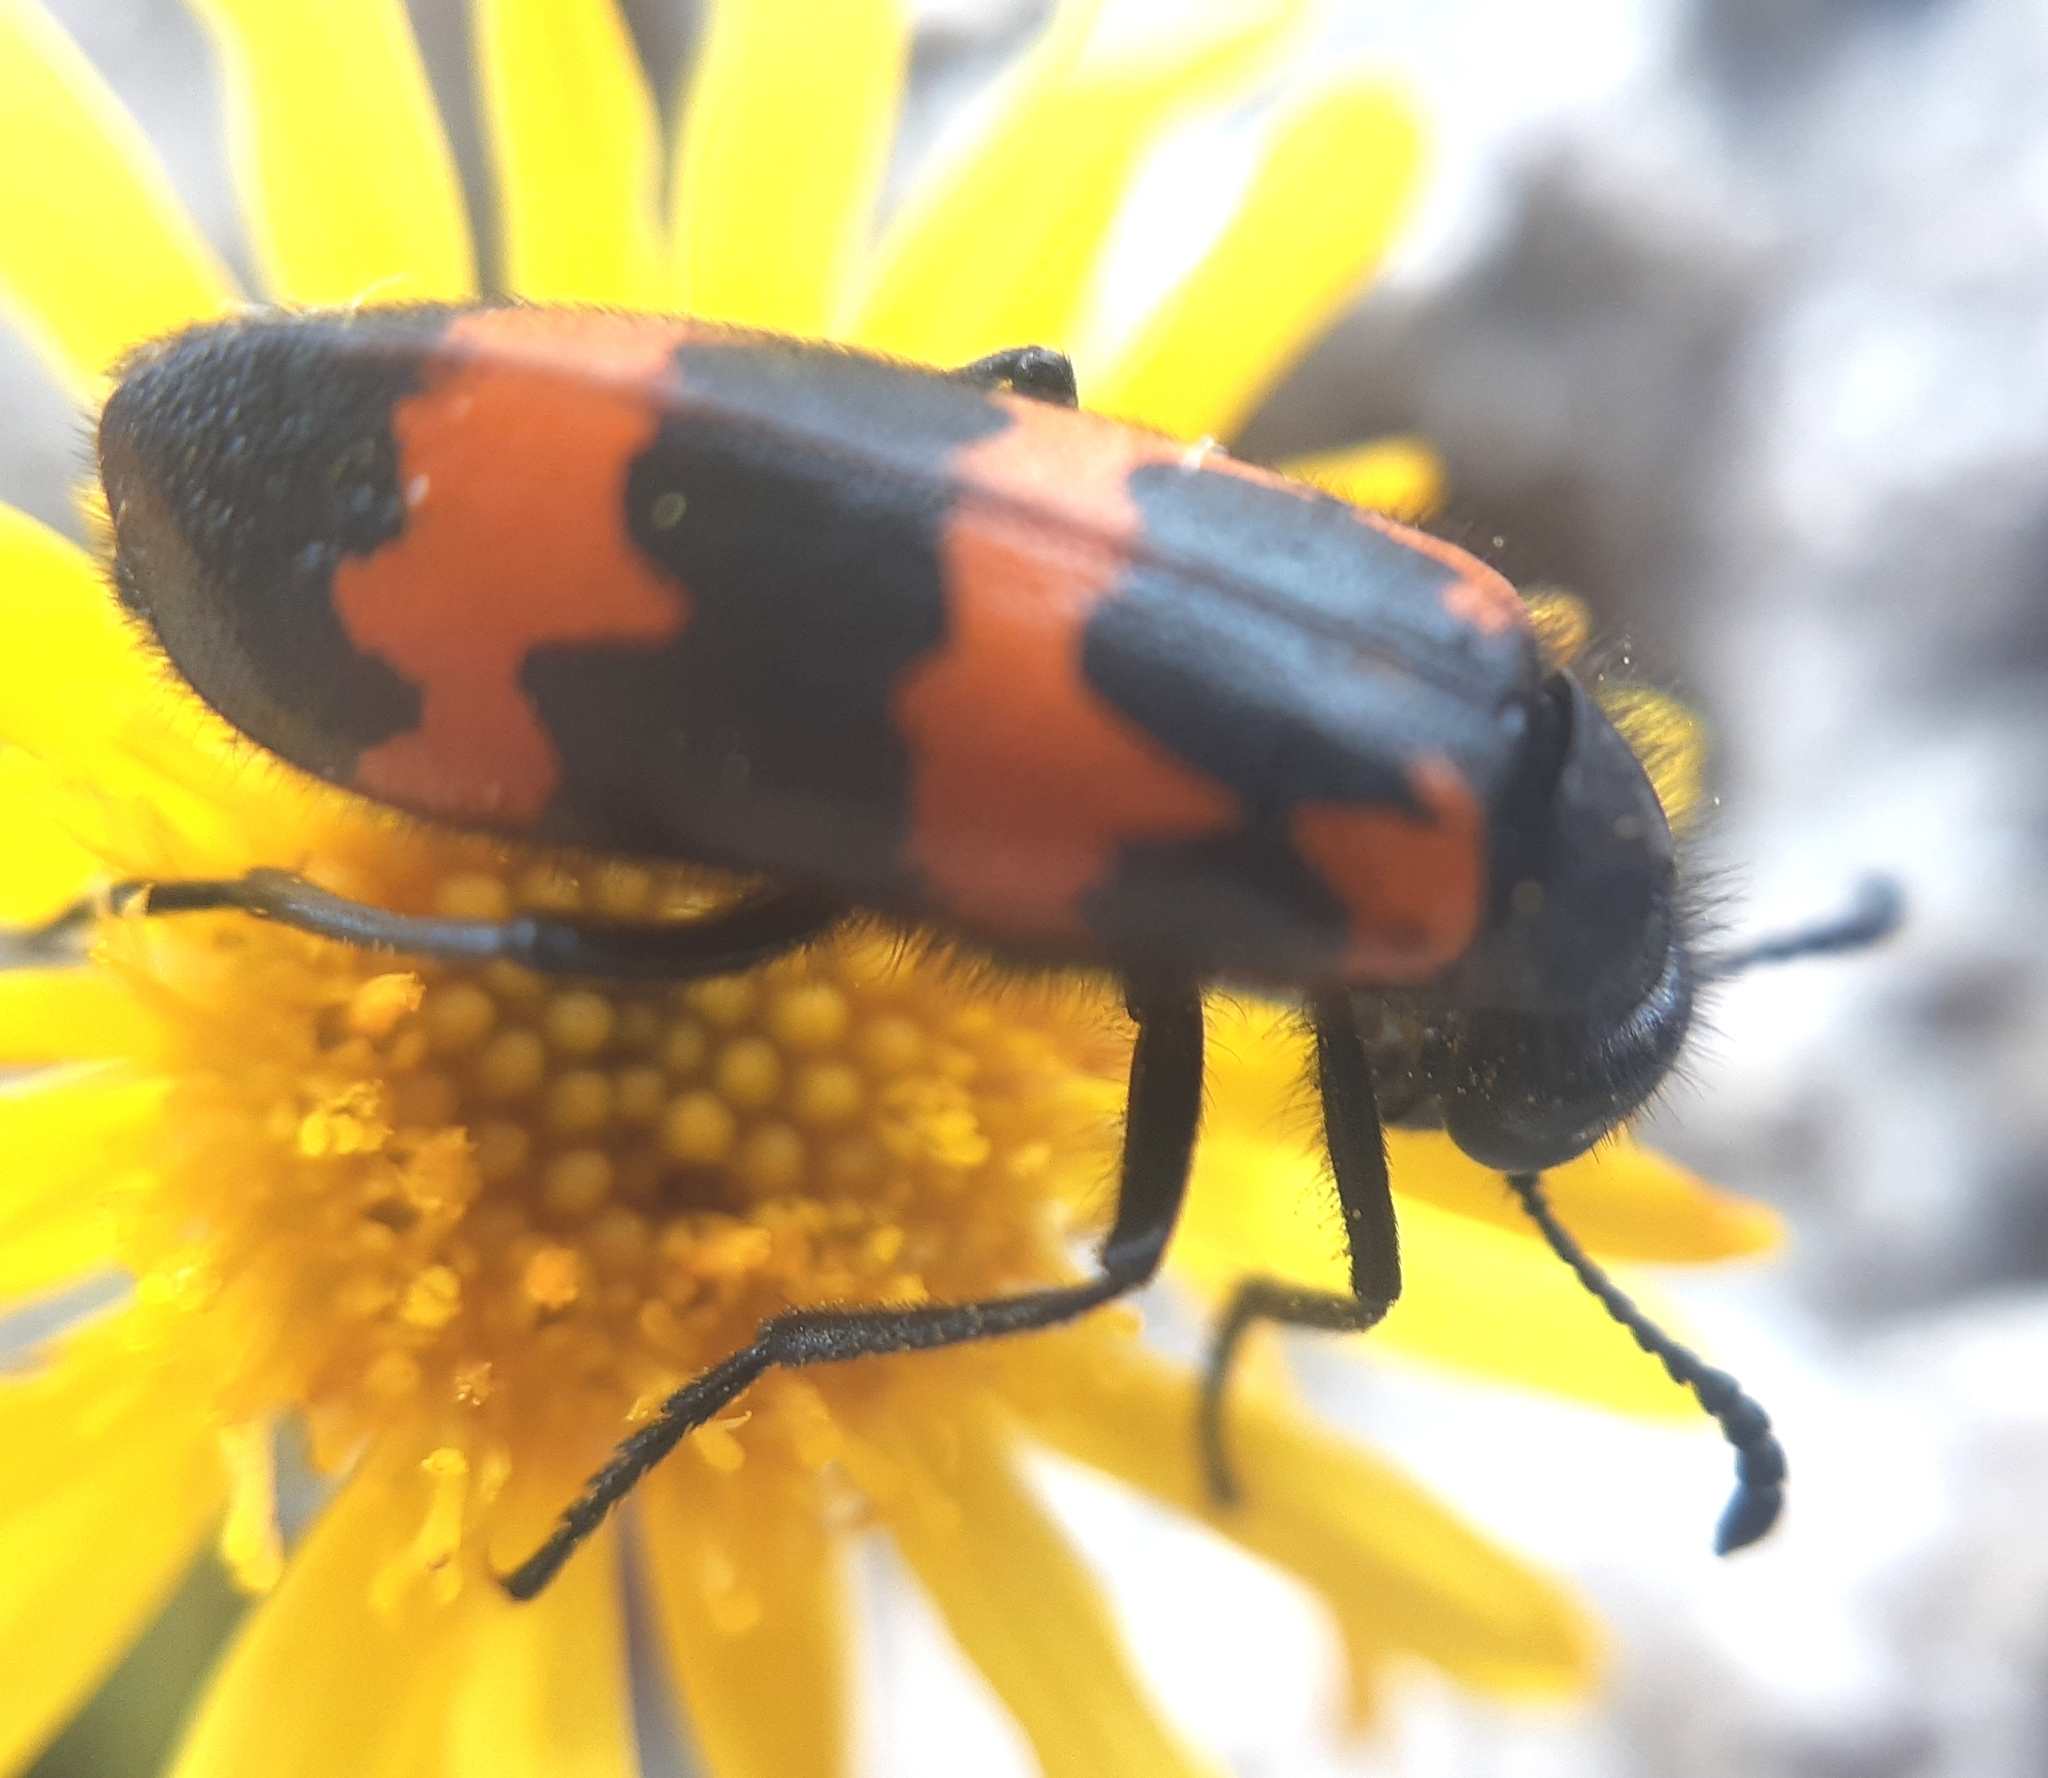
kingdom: Animalia
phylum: Arthropoda
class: Insecta
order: Coleoptera
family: Meloidae
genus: Mylabris
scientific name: Mylabris variabilis
